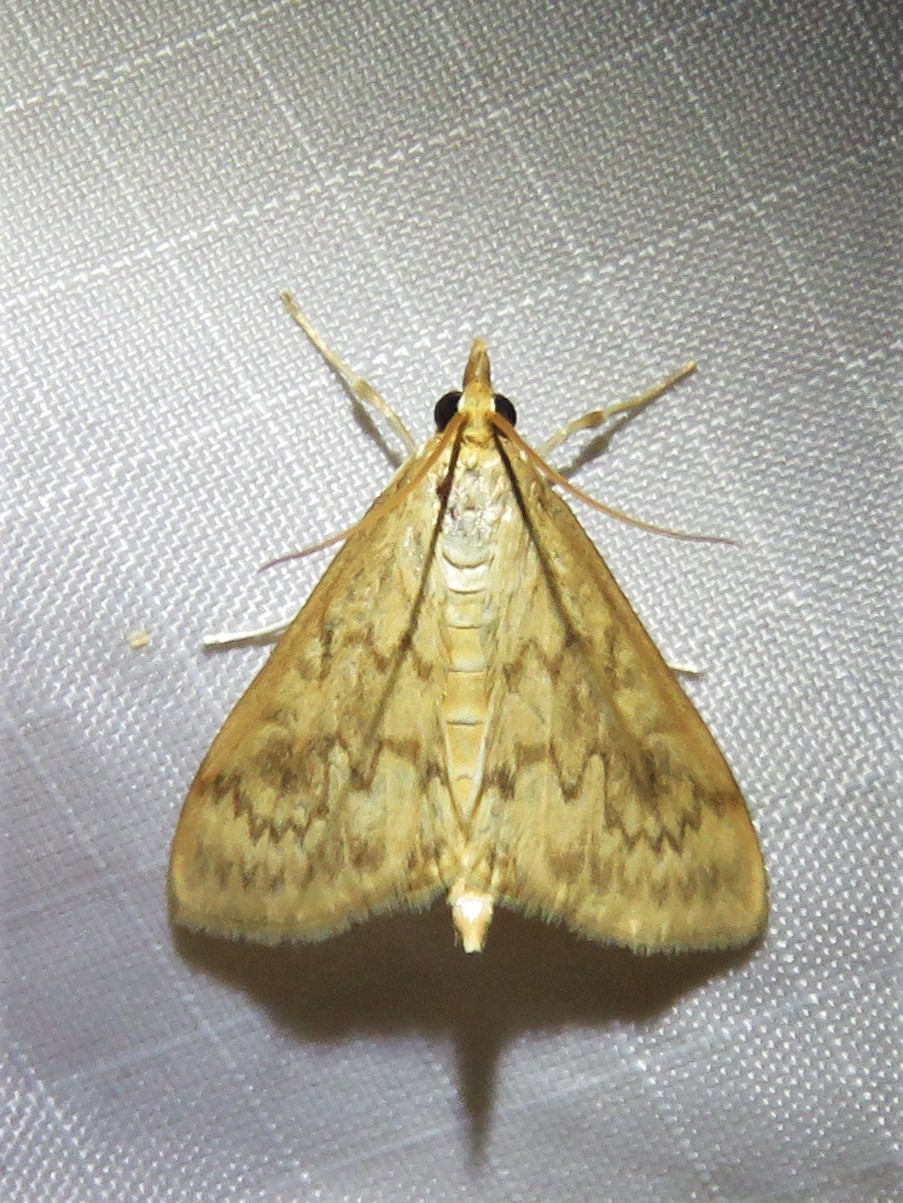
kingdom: Animalia
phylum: Arthropoda
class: Insecta
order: Lepidoptera
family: Crambidae
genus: Ostrinia
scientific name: Ostrinia penitalis
